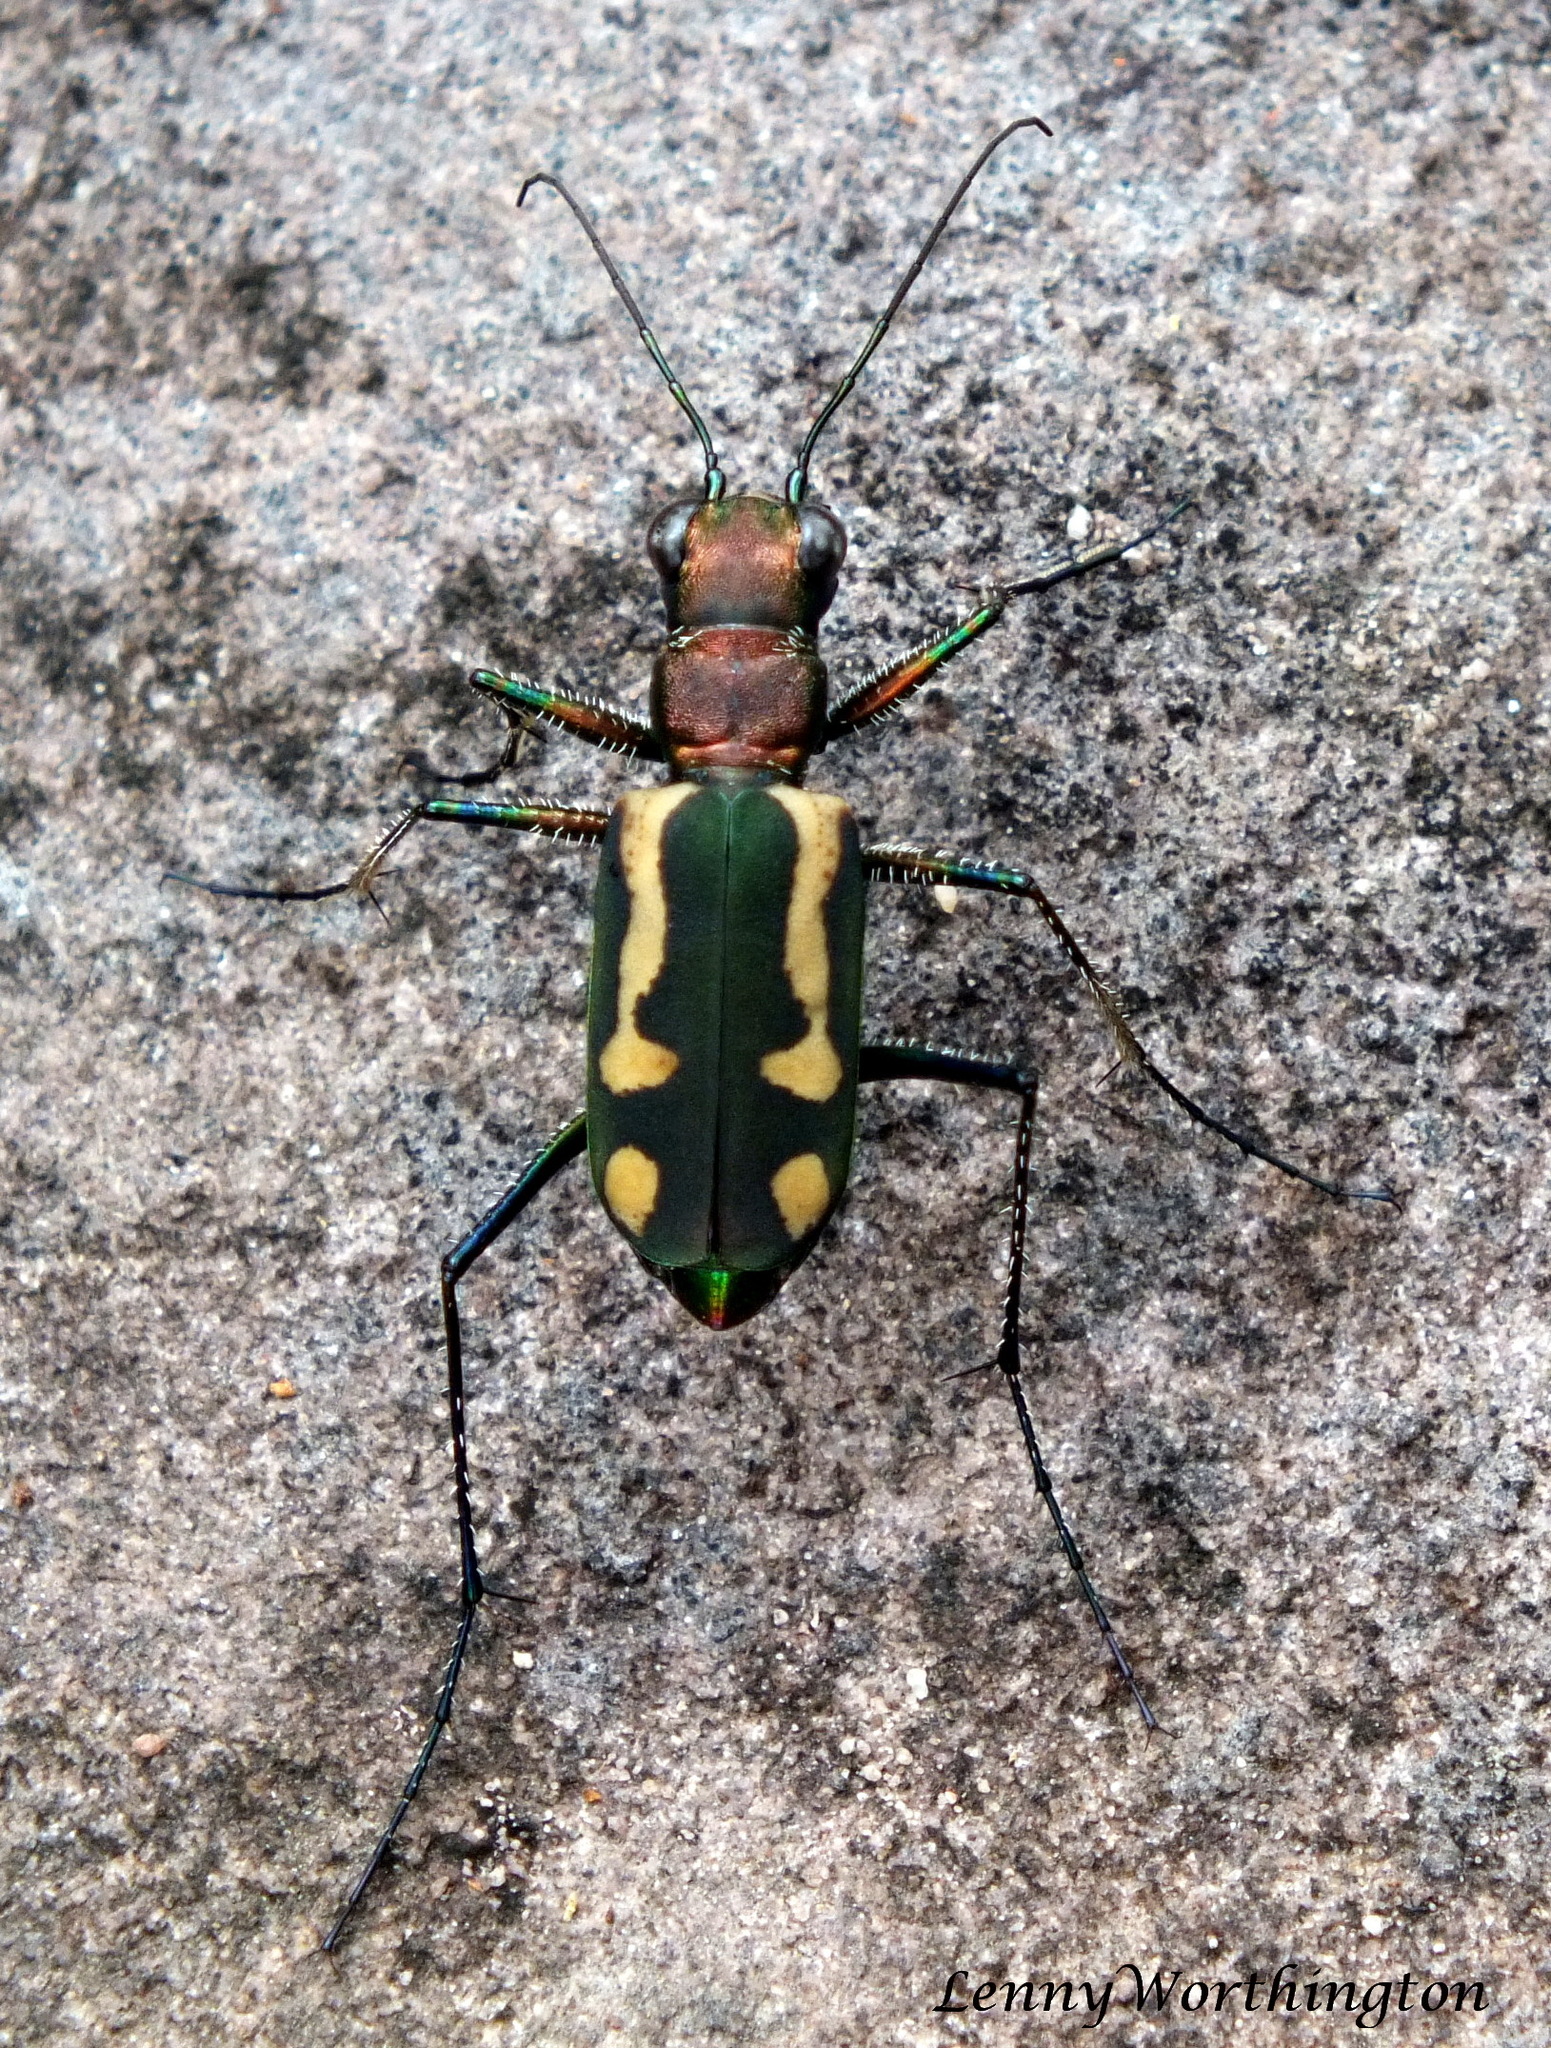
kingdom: Animalia
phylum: Arthropoda
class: Insecta
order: Coleoptera
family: Carabidae
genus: Cicindela
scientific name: Cicindela bramani
